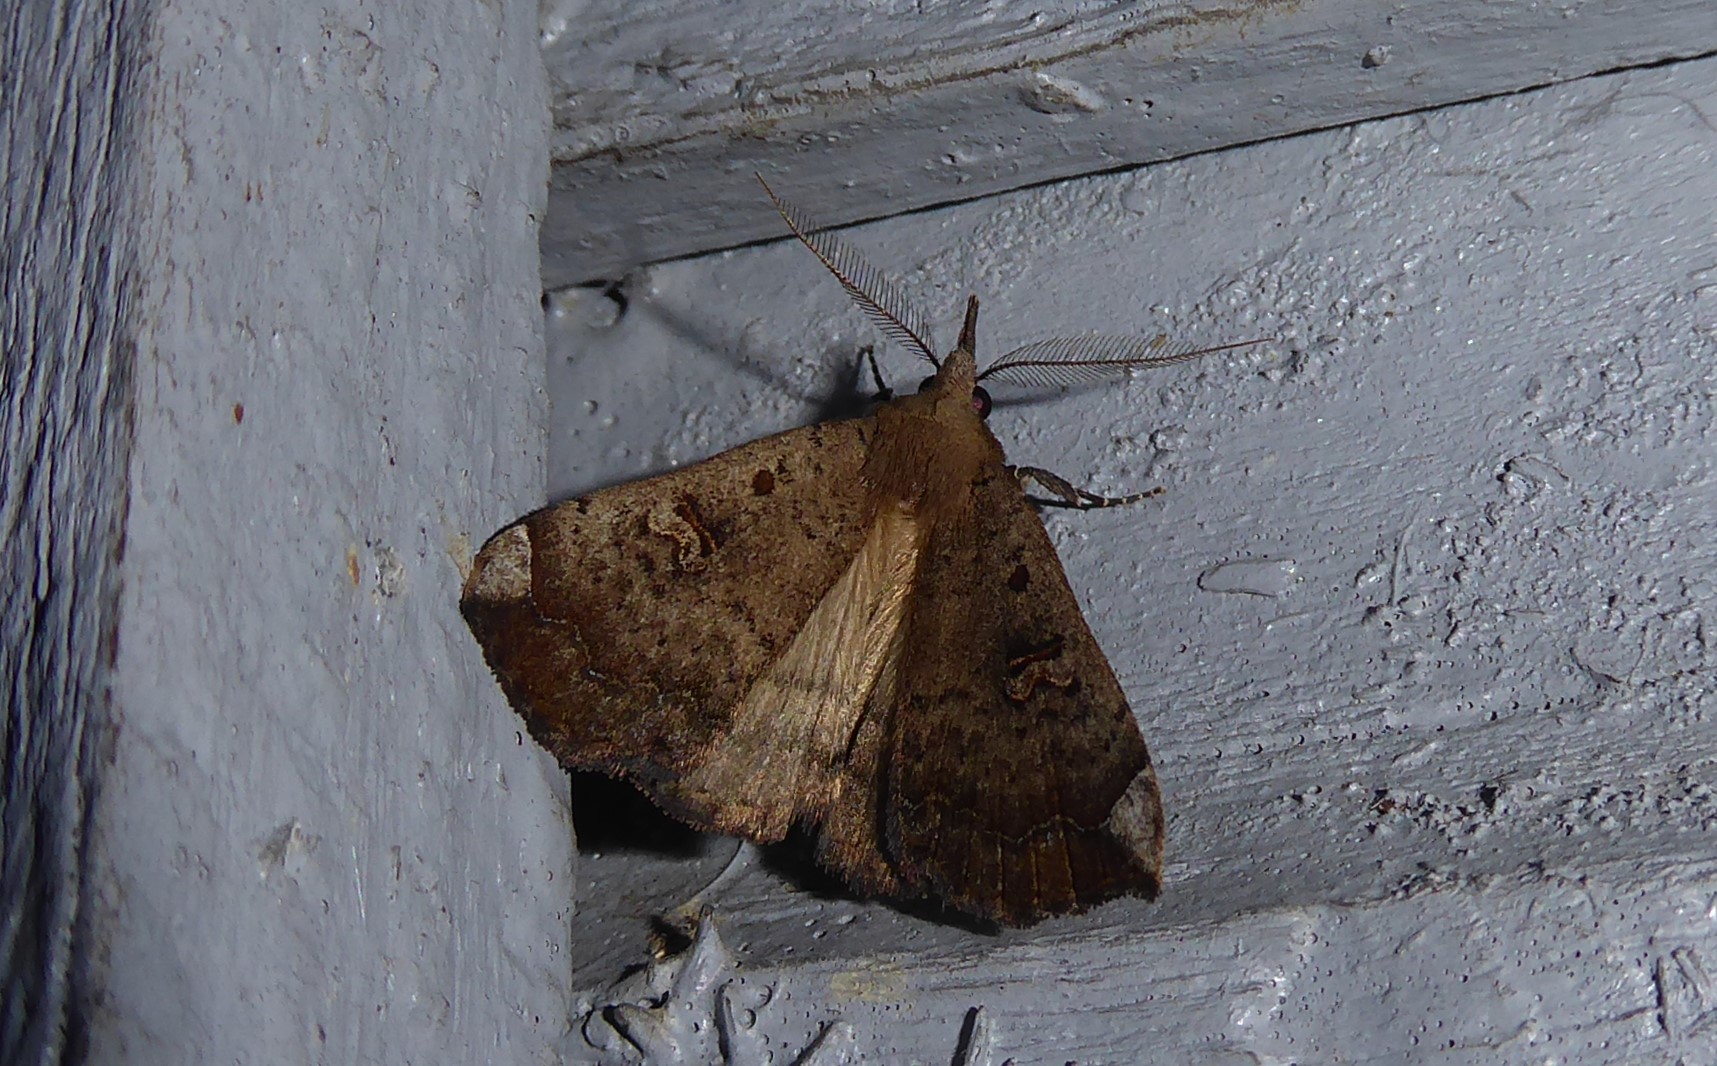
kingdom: Animalia
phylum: Arthropoda
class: Insecta
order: Lepidoptera
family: Erebidae
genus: Rhapsa
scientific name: Rhapsa scotosialis
